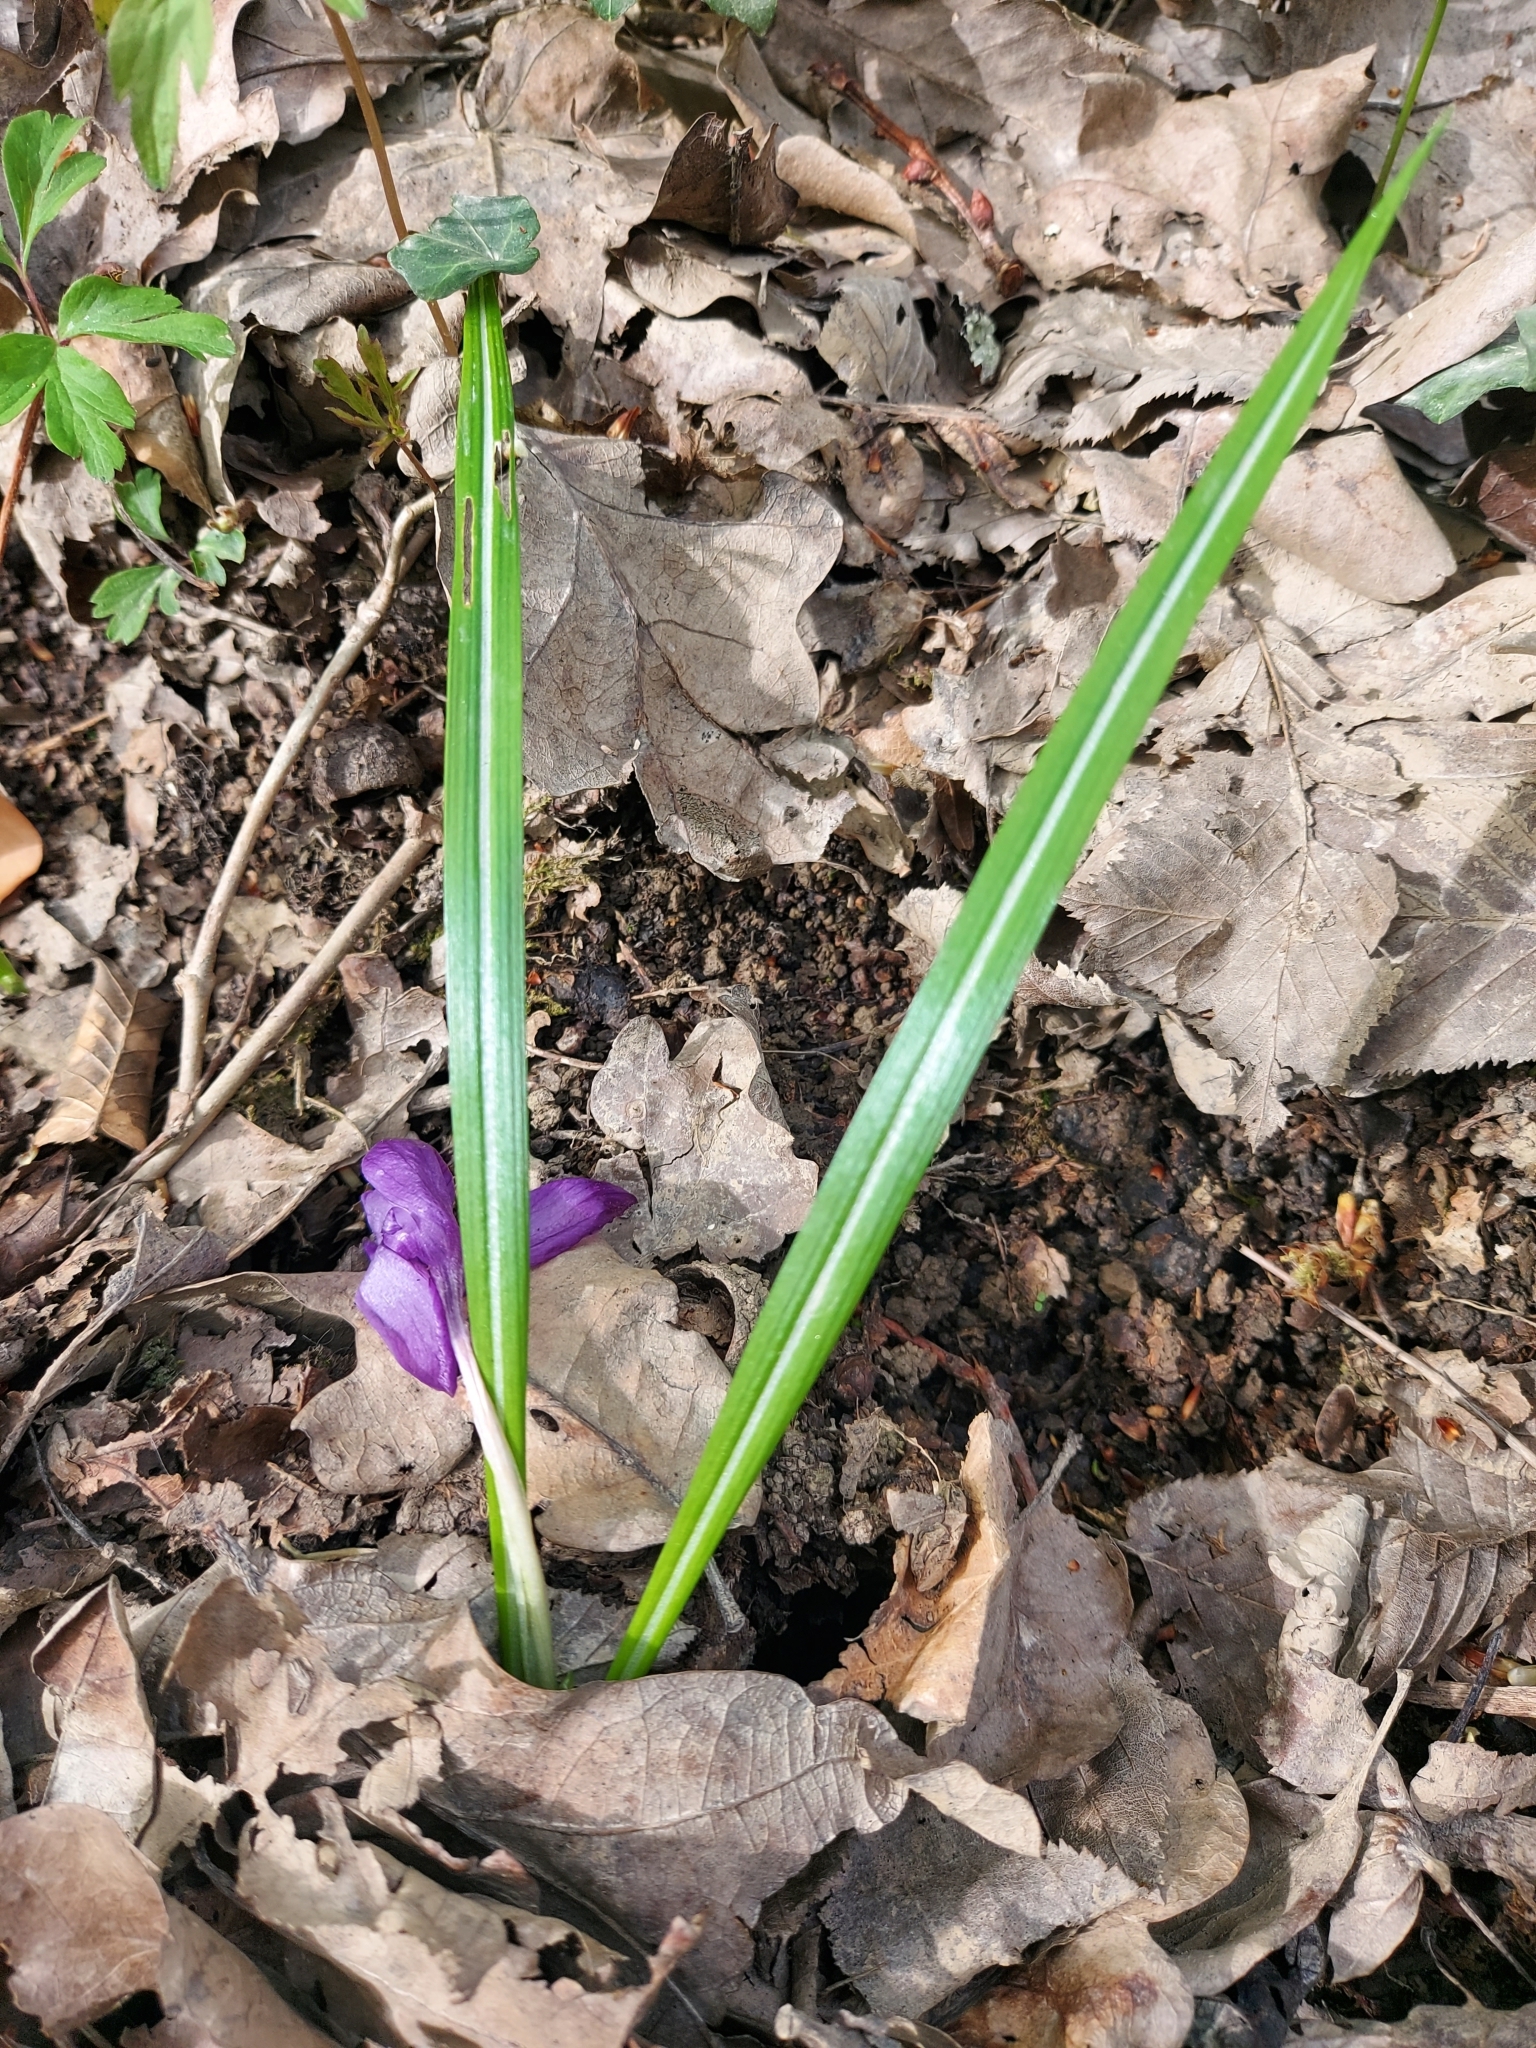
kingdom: Plantae
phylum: Tracheophyta
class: Liliopsida
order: Asparagales
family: Iridaceae
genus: Crocus
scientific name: Crocus heuffelianus
